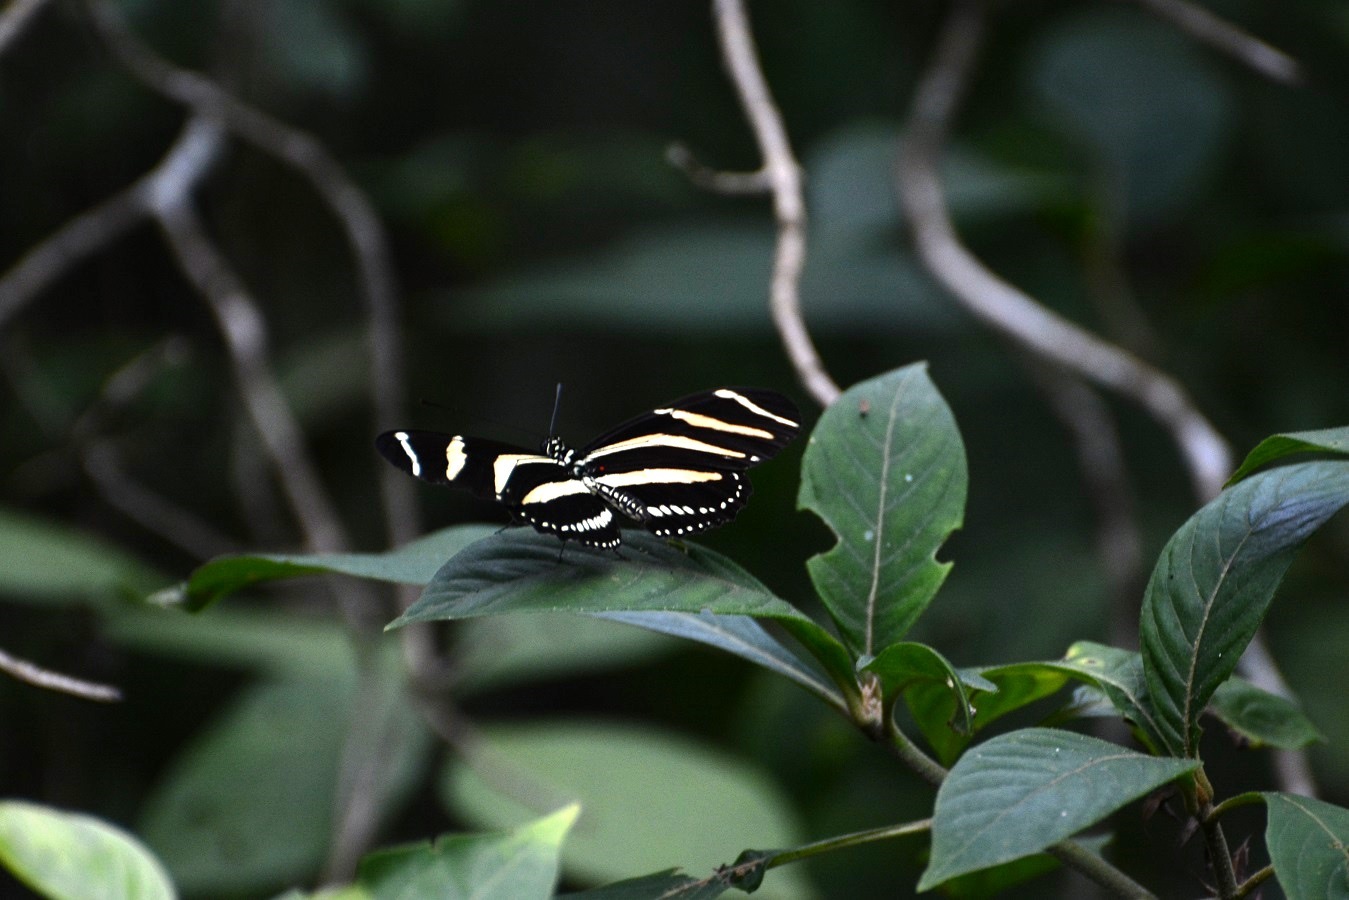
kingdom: Animalia
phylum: Arthropoda
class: Insecta
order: Lepidoptera
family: Nymphalidae
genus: Heliconius
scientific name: Heliconius charithonia
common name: Zebra long wing
